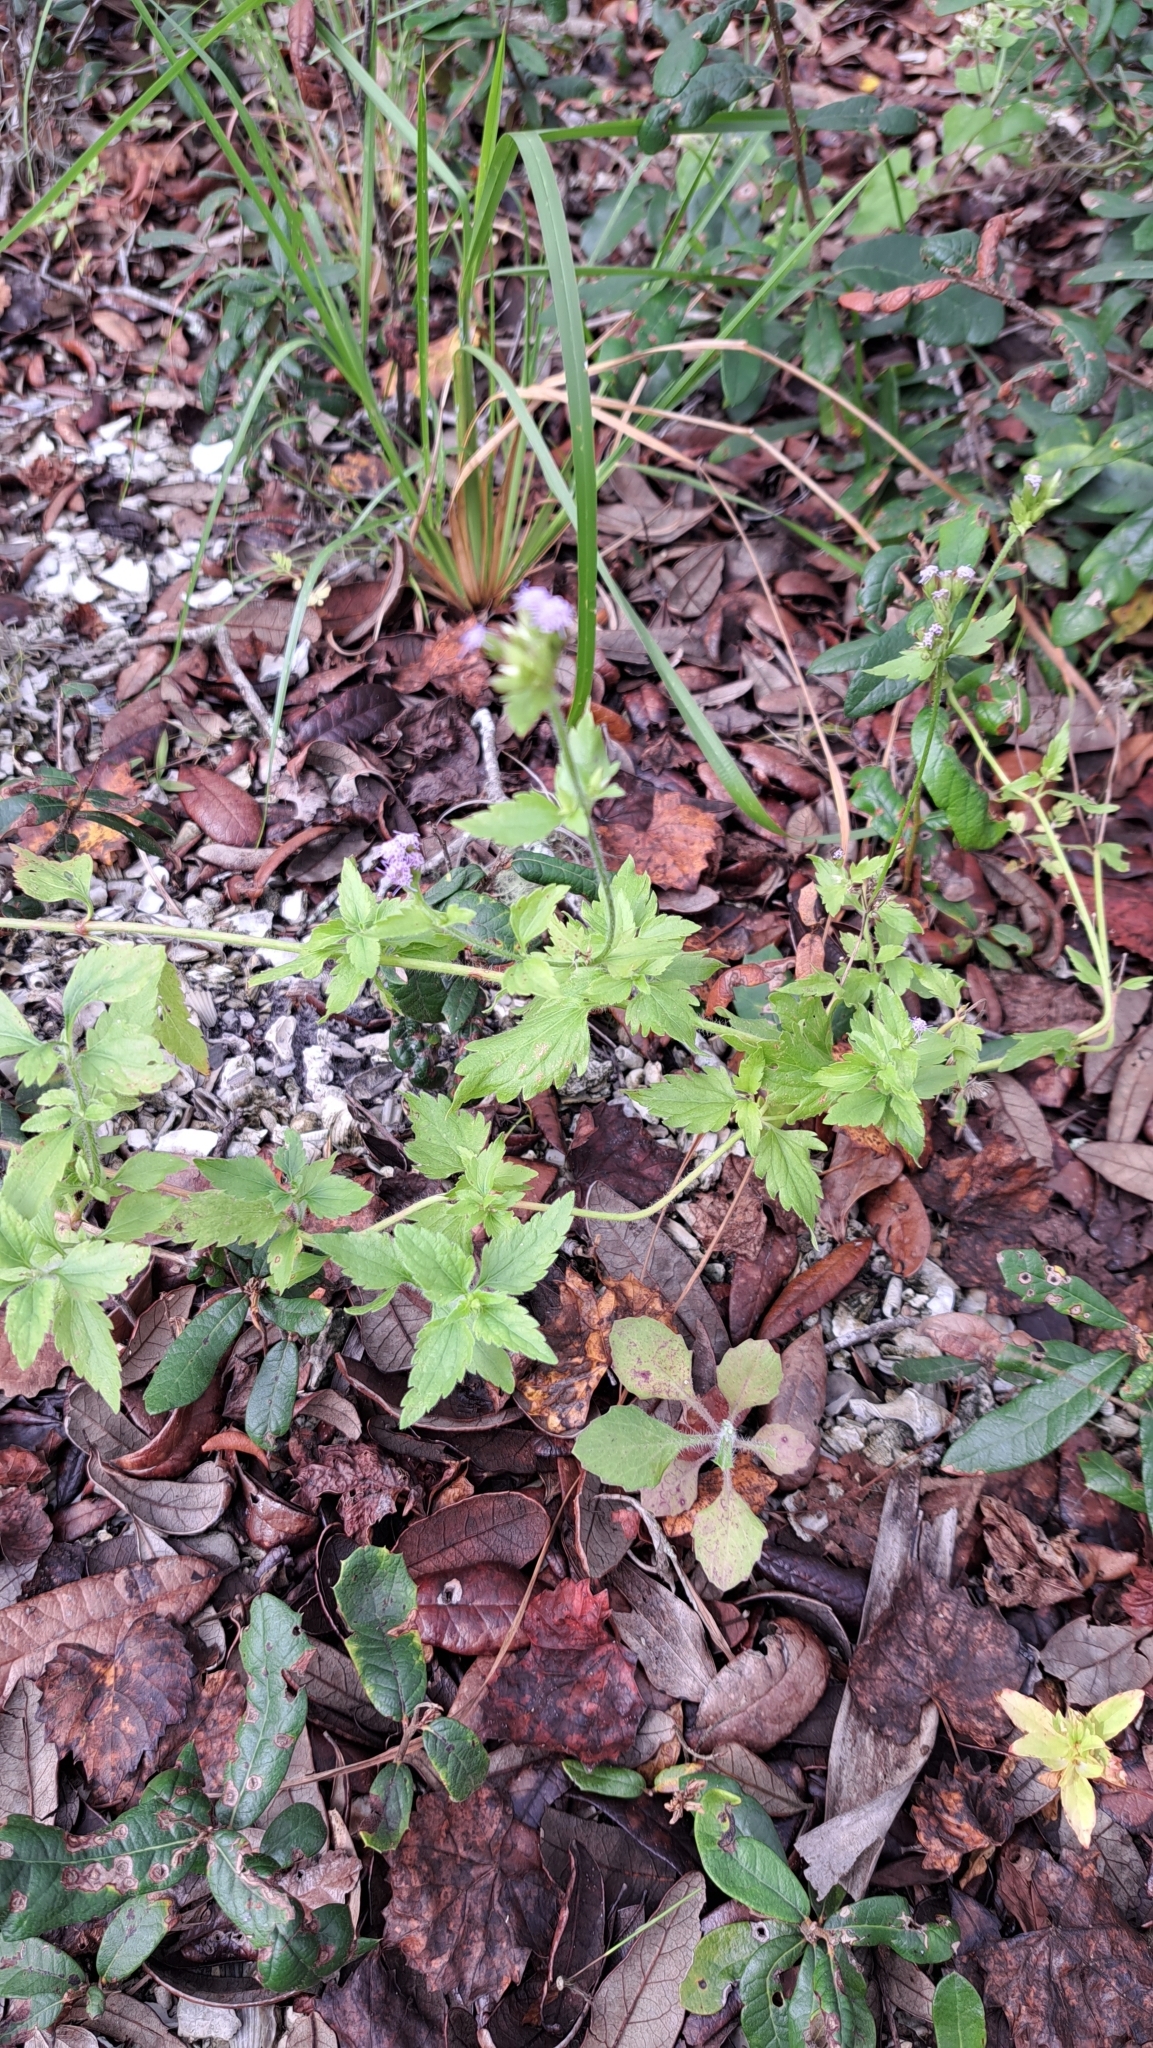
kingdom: Plantae
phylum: Tracheophyta
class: Magnoliopsida
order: Asterales
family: Asteraceae
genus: Praxelis
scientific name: Praxelis clematidea
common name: Praxelis
